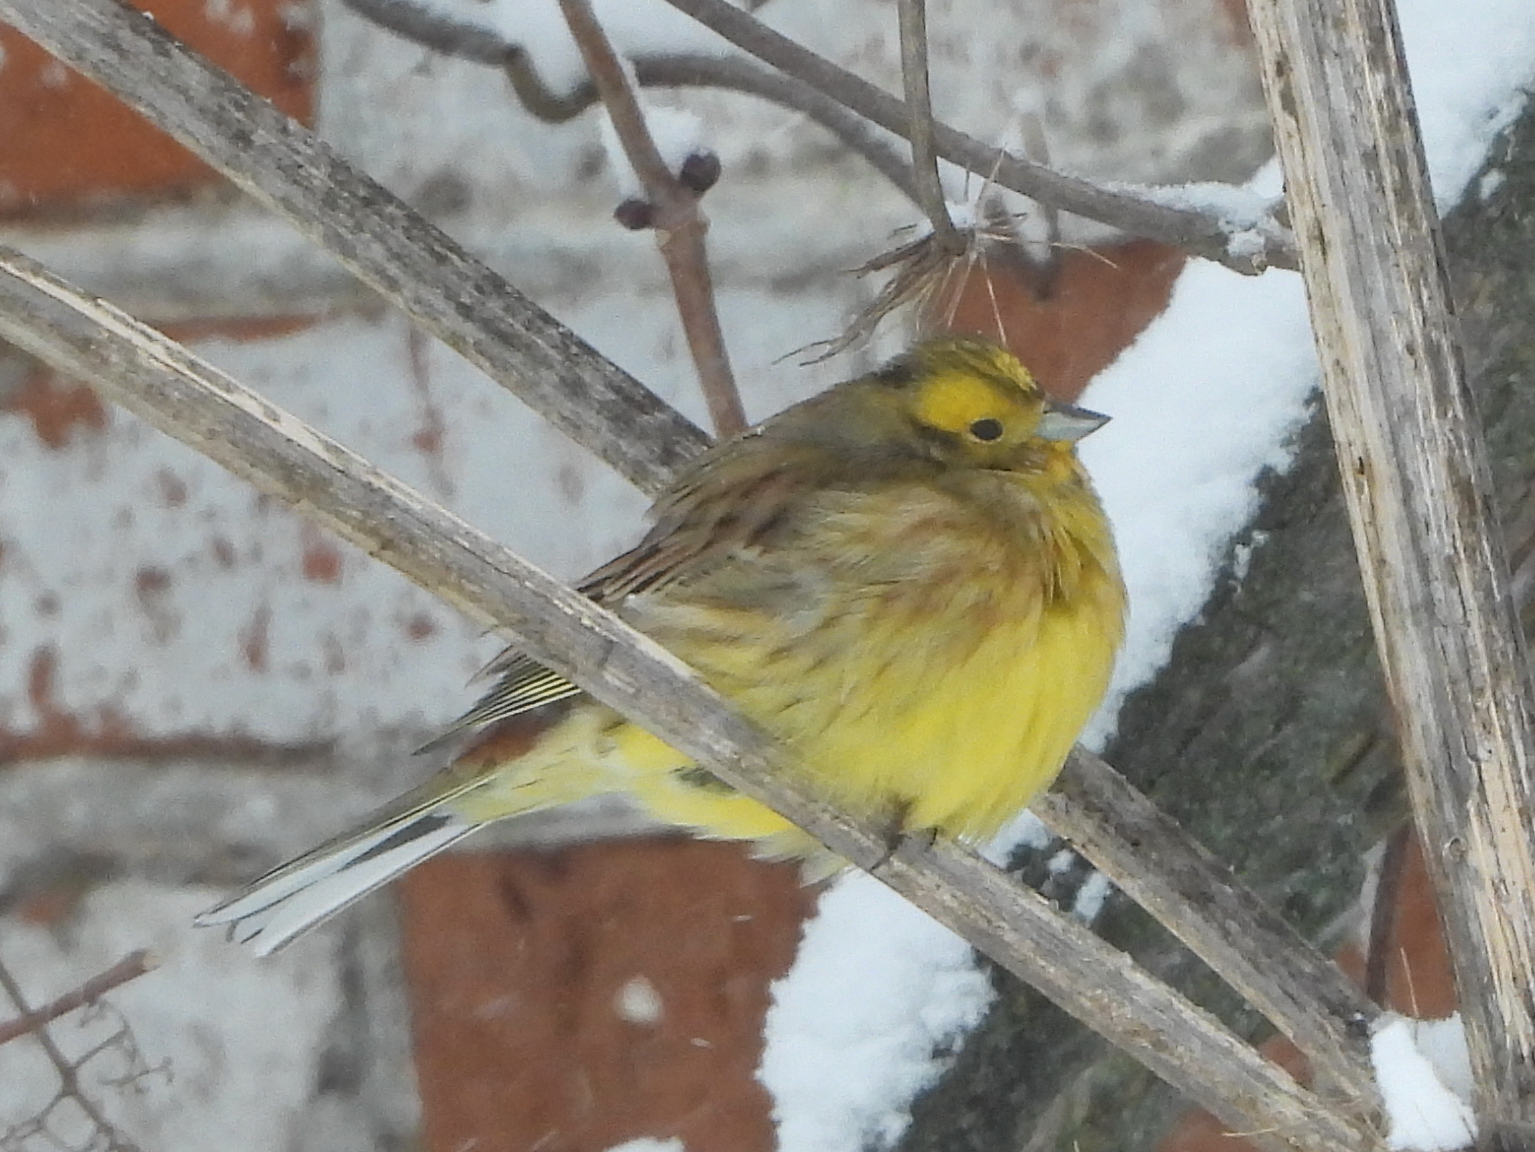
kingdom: Animalia
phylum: Chordata
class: Aves
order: Passeriformes
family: Emberizidae
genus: Emberiza
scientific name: Emberiza citrinella
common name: Yellowhammer
